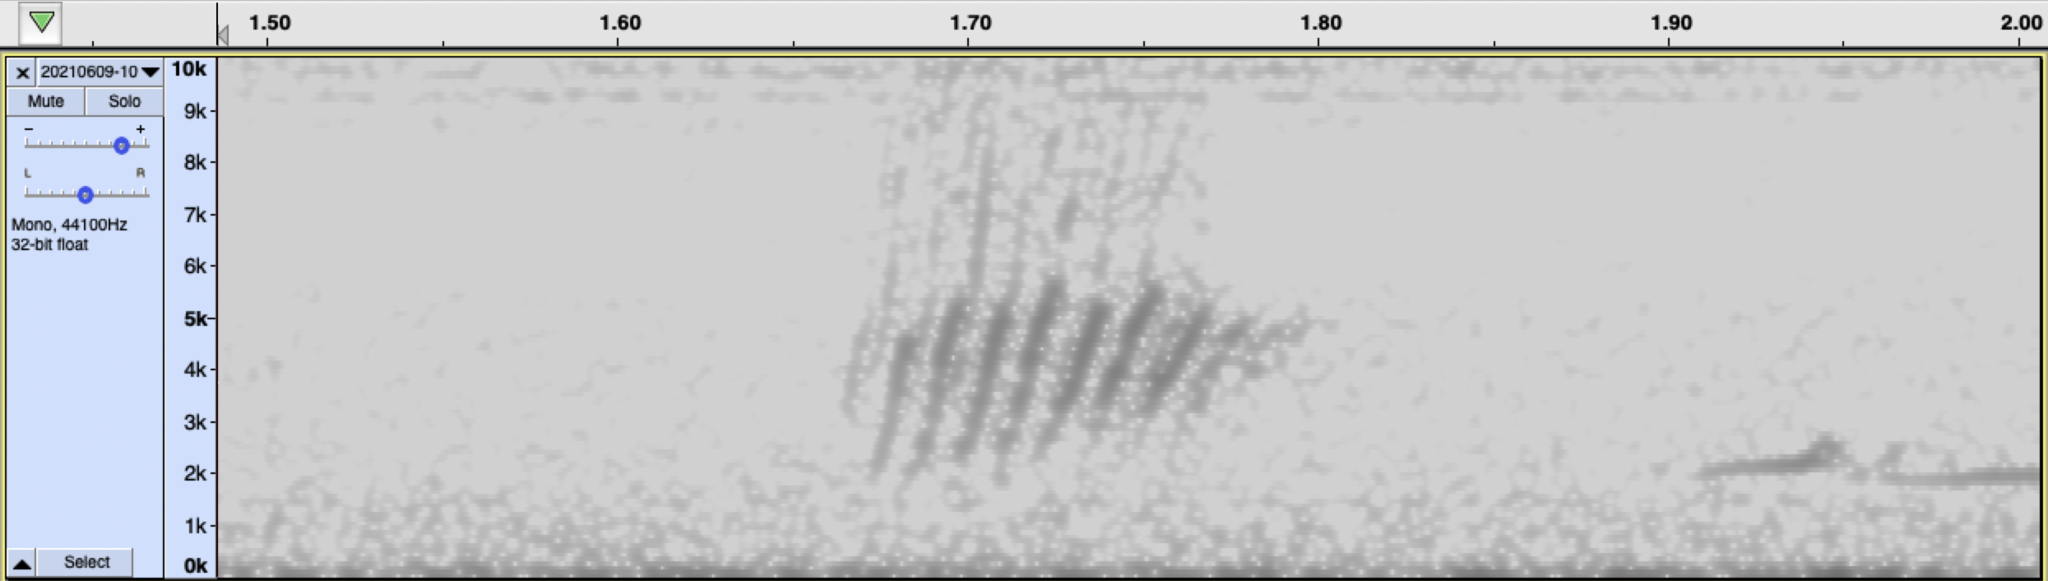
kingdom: Animalia
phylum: Chordata
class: Aves
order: Passeriformes
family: Hirundinidae
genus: Stelgidopteryx
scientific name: Stelgidopteryx serripennis
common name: Northern rough-winged swallow
